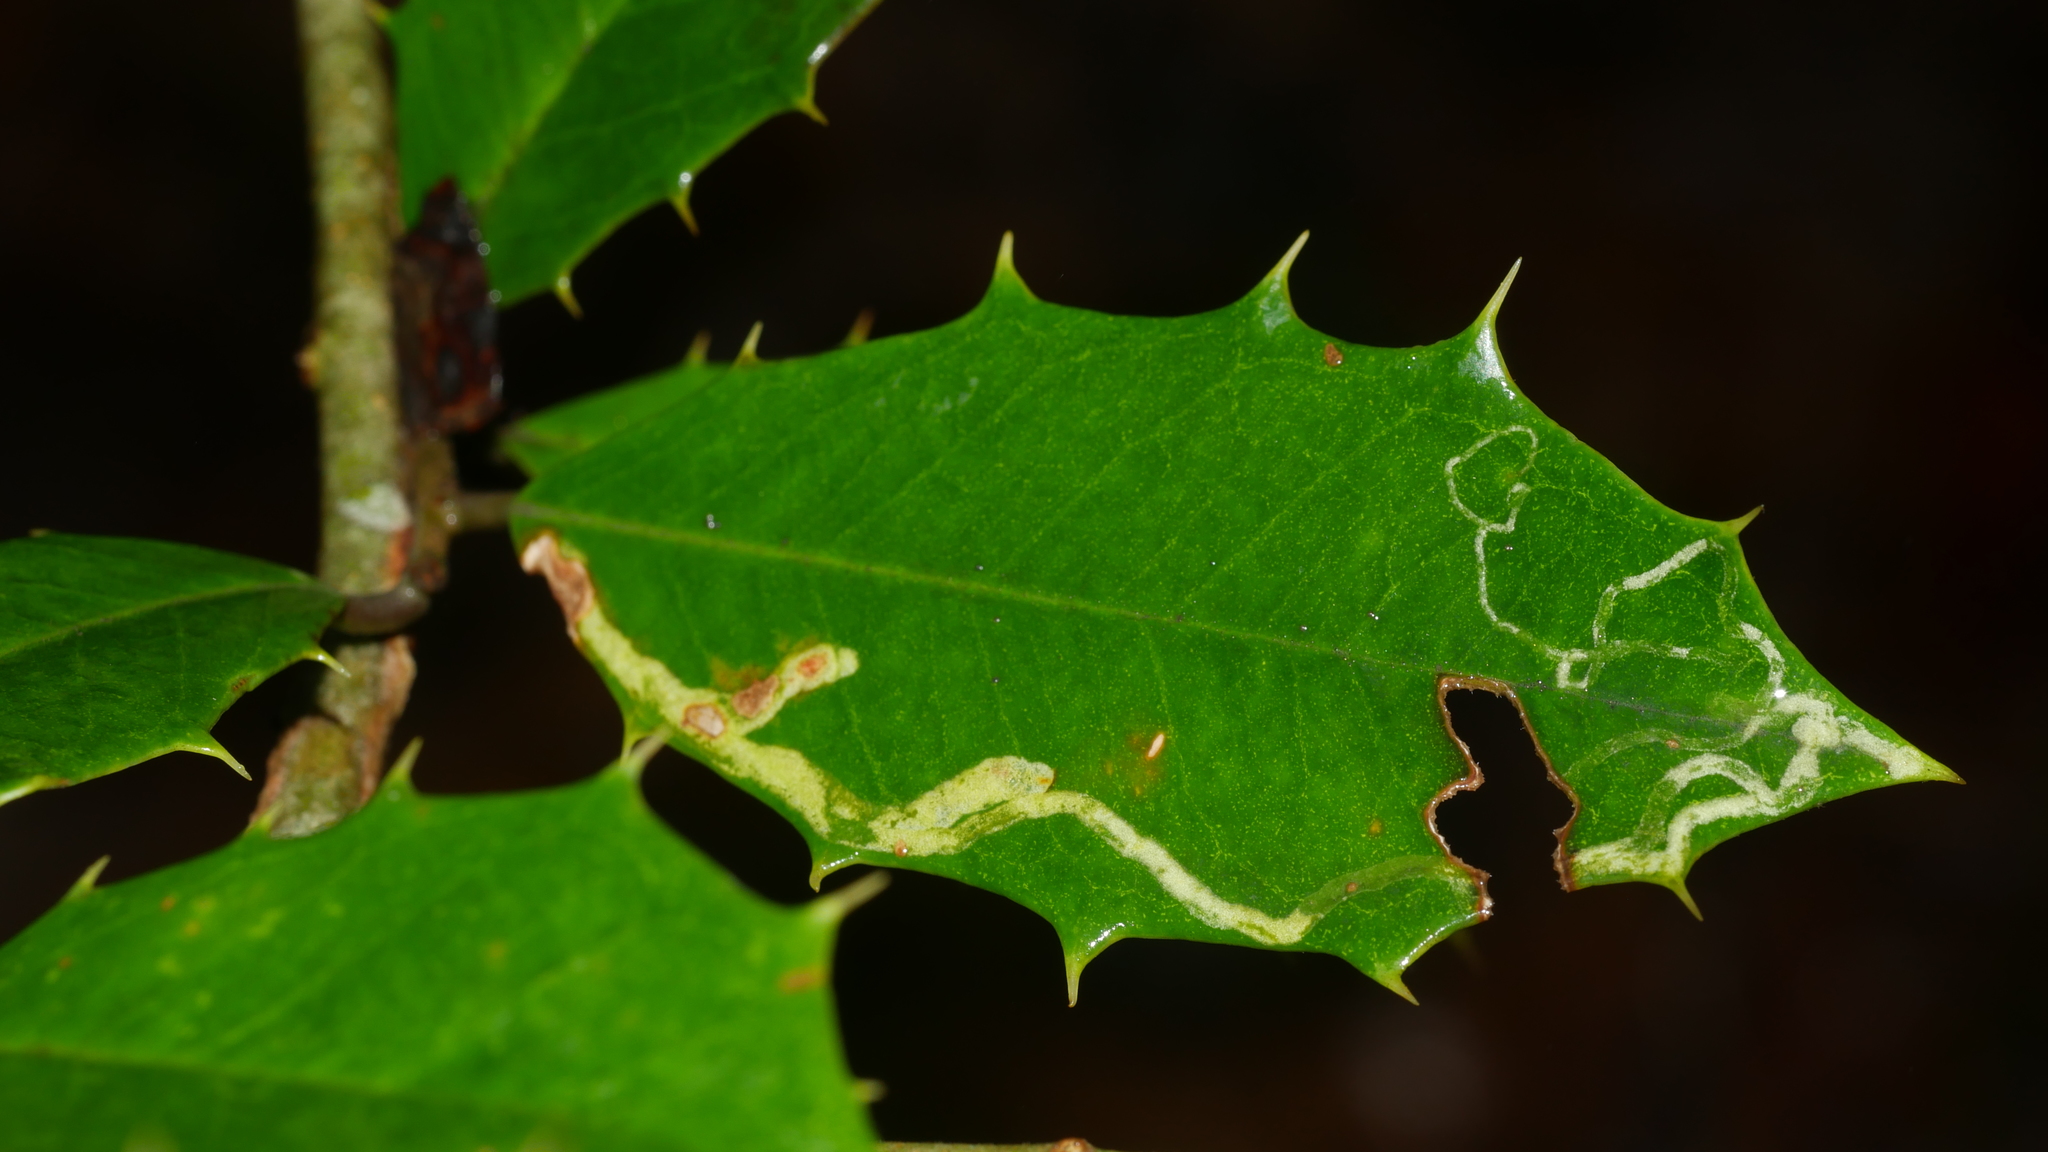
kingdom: Animalia
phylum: Arthropoda
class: Insecta
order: Diptera
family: Agromyzidae
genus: Phytomyza
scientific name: Phytomyza opacae
